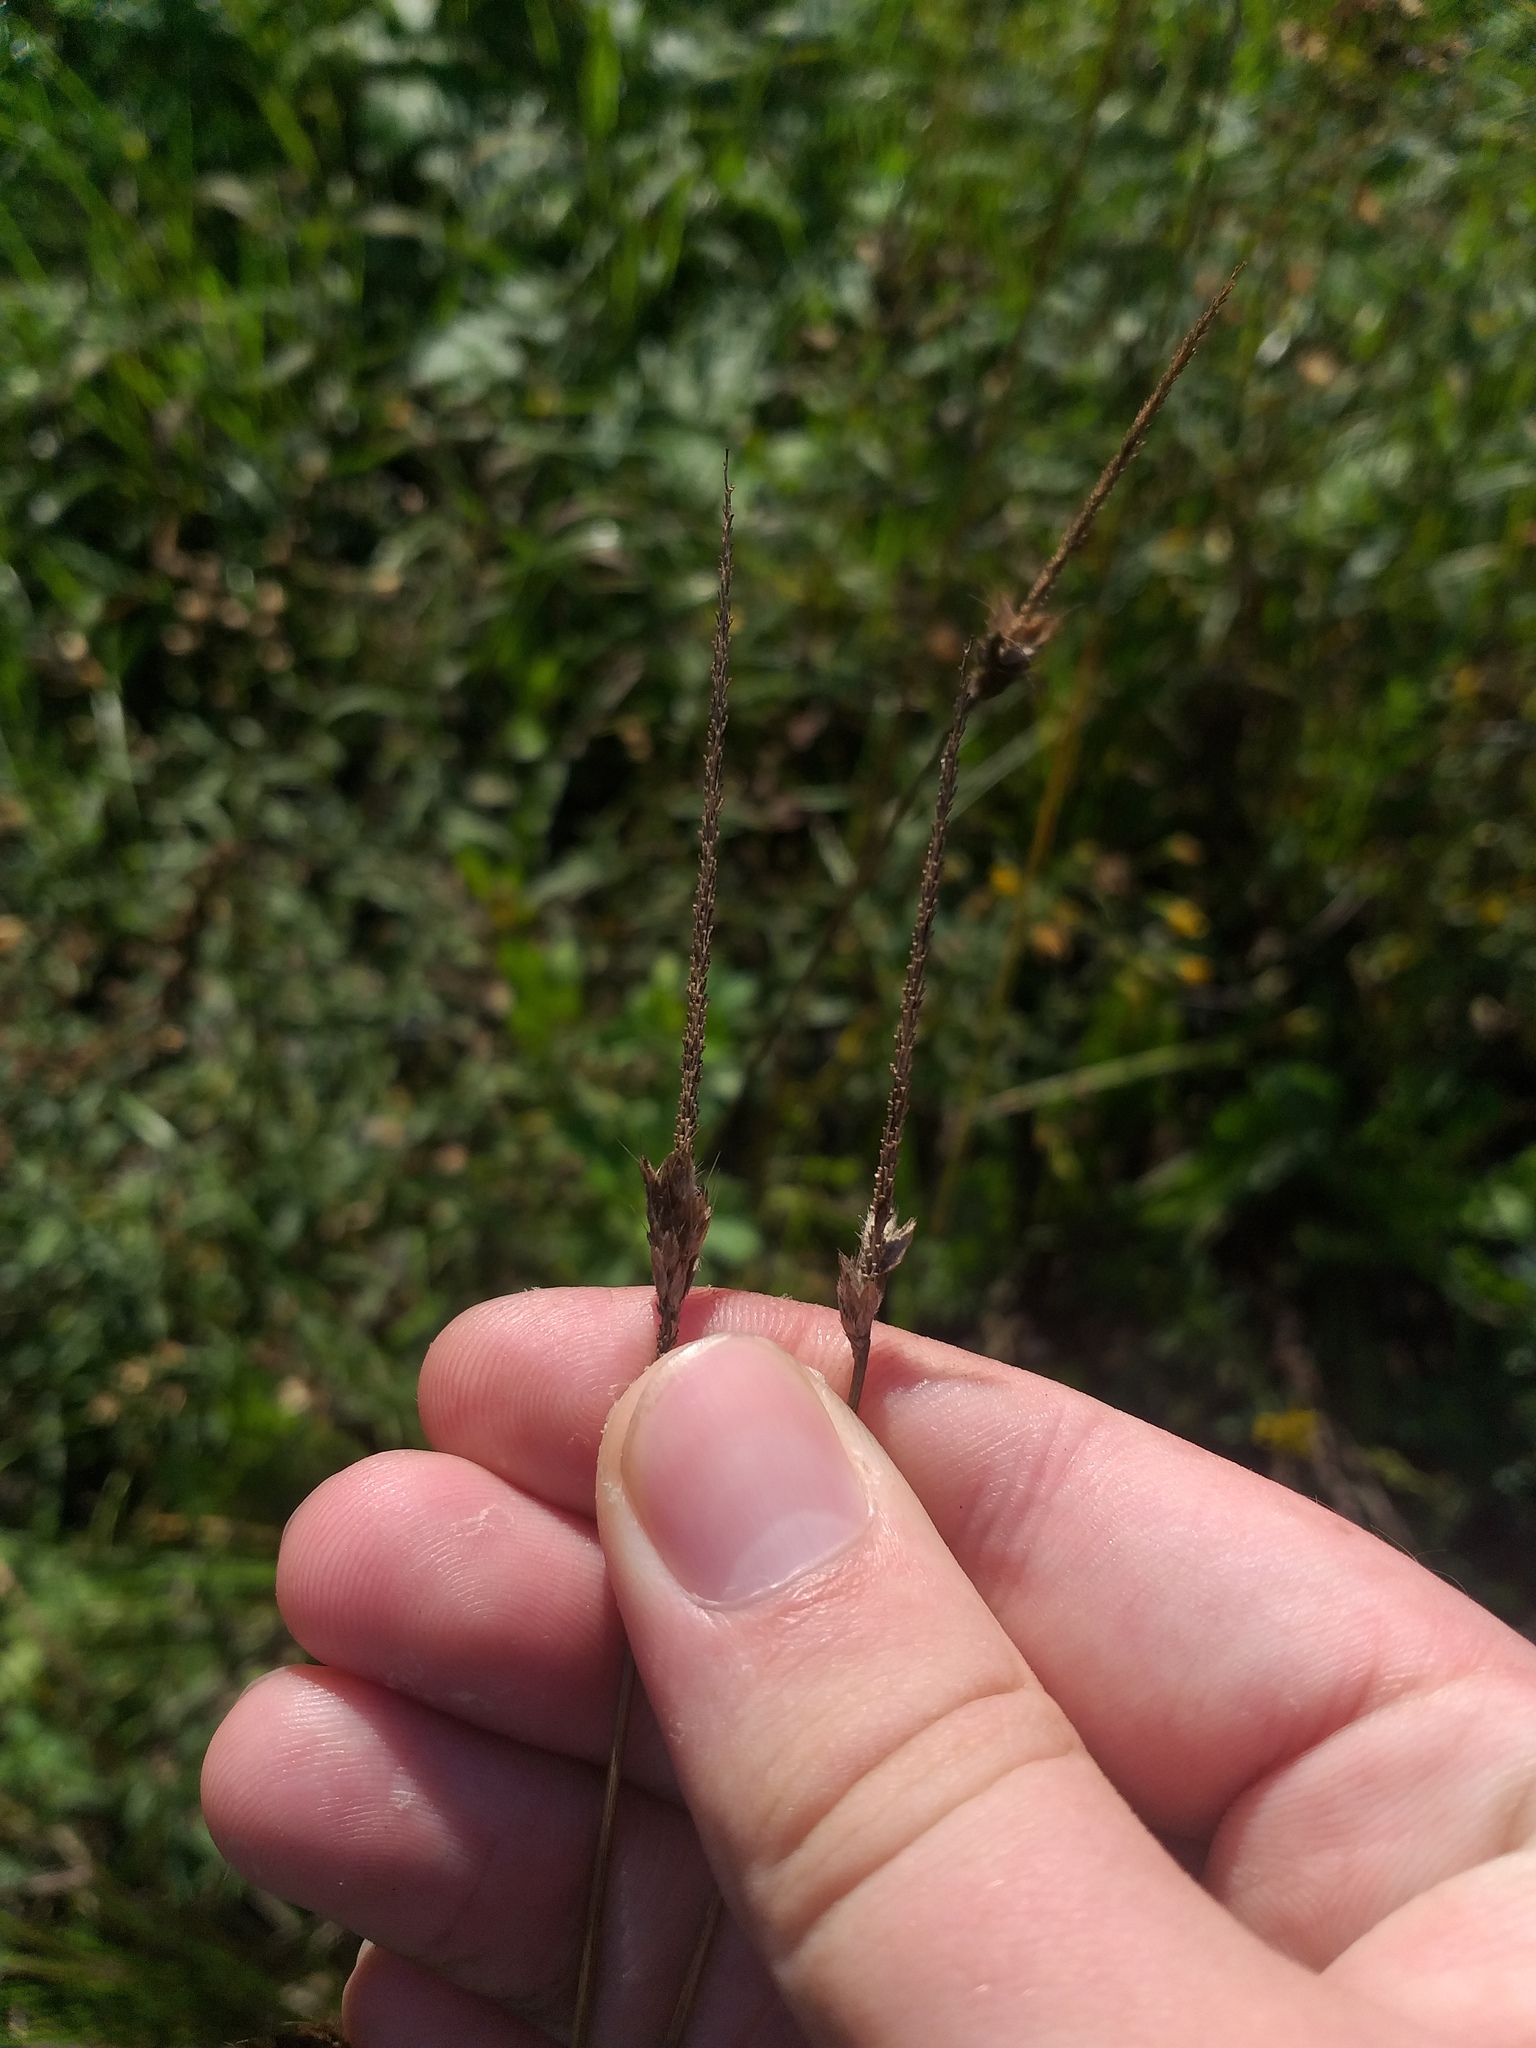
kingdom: Plantae
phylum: Tracheophyta
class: Liliopsida
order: Poales
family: Poaceae
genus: Alopecurus
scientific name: Alopecurus pratensis
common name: Meadow foxtail
